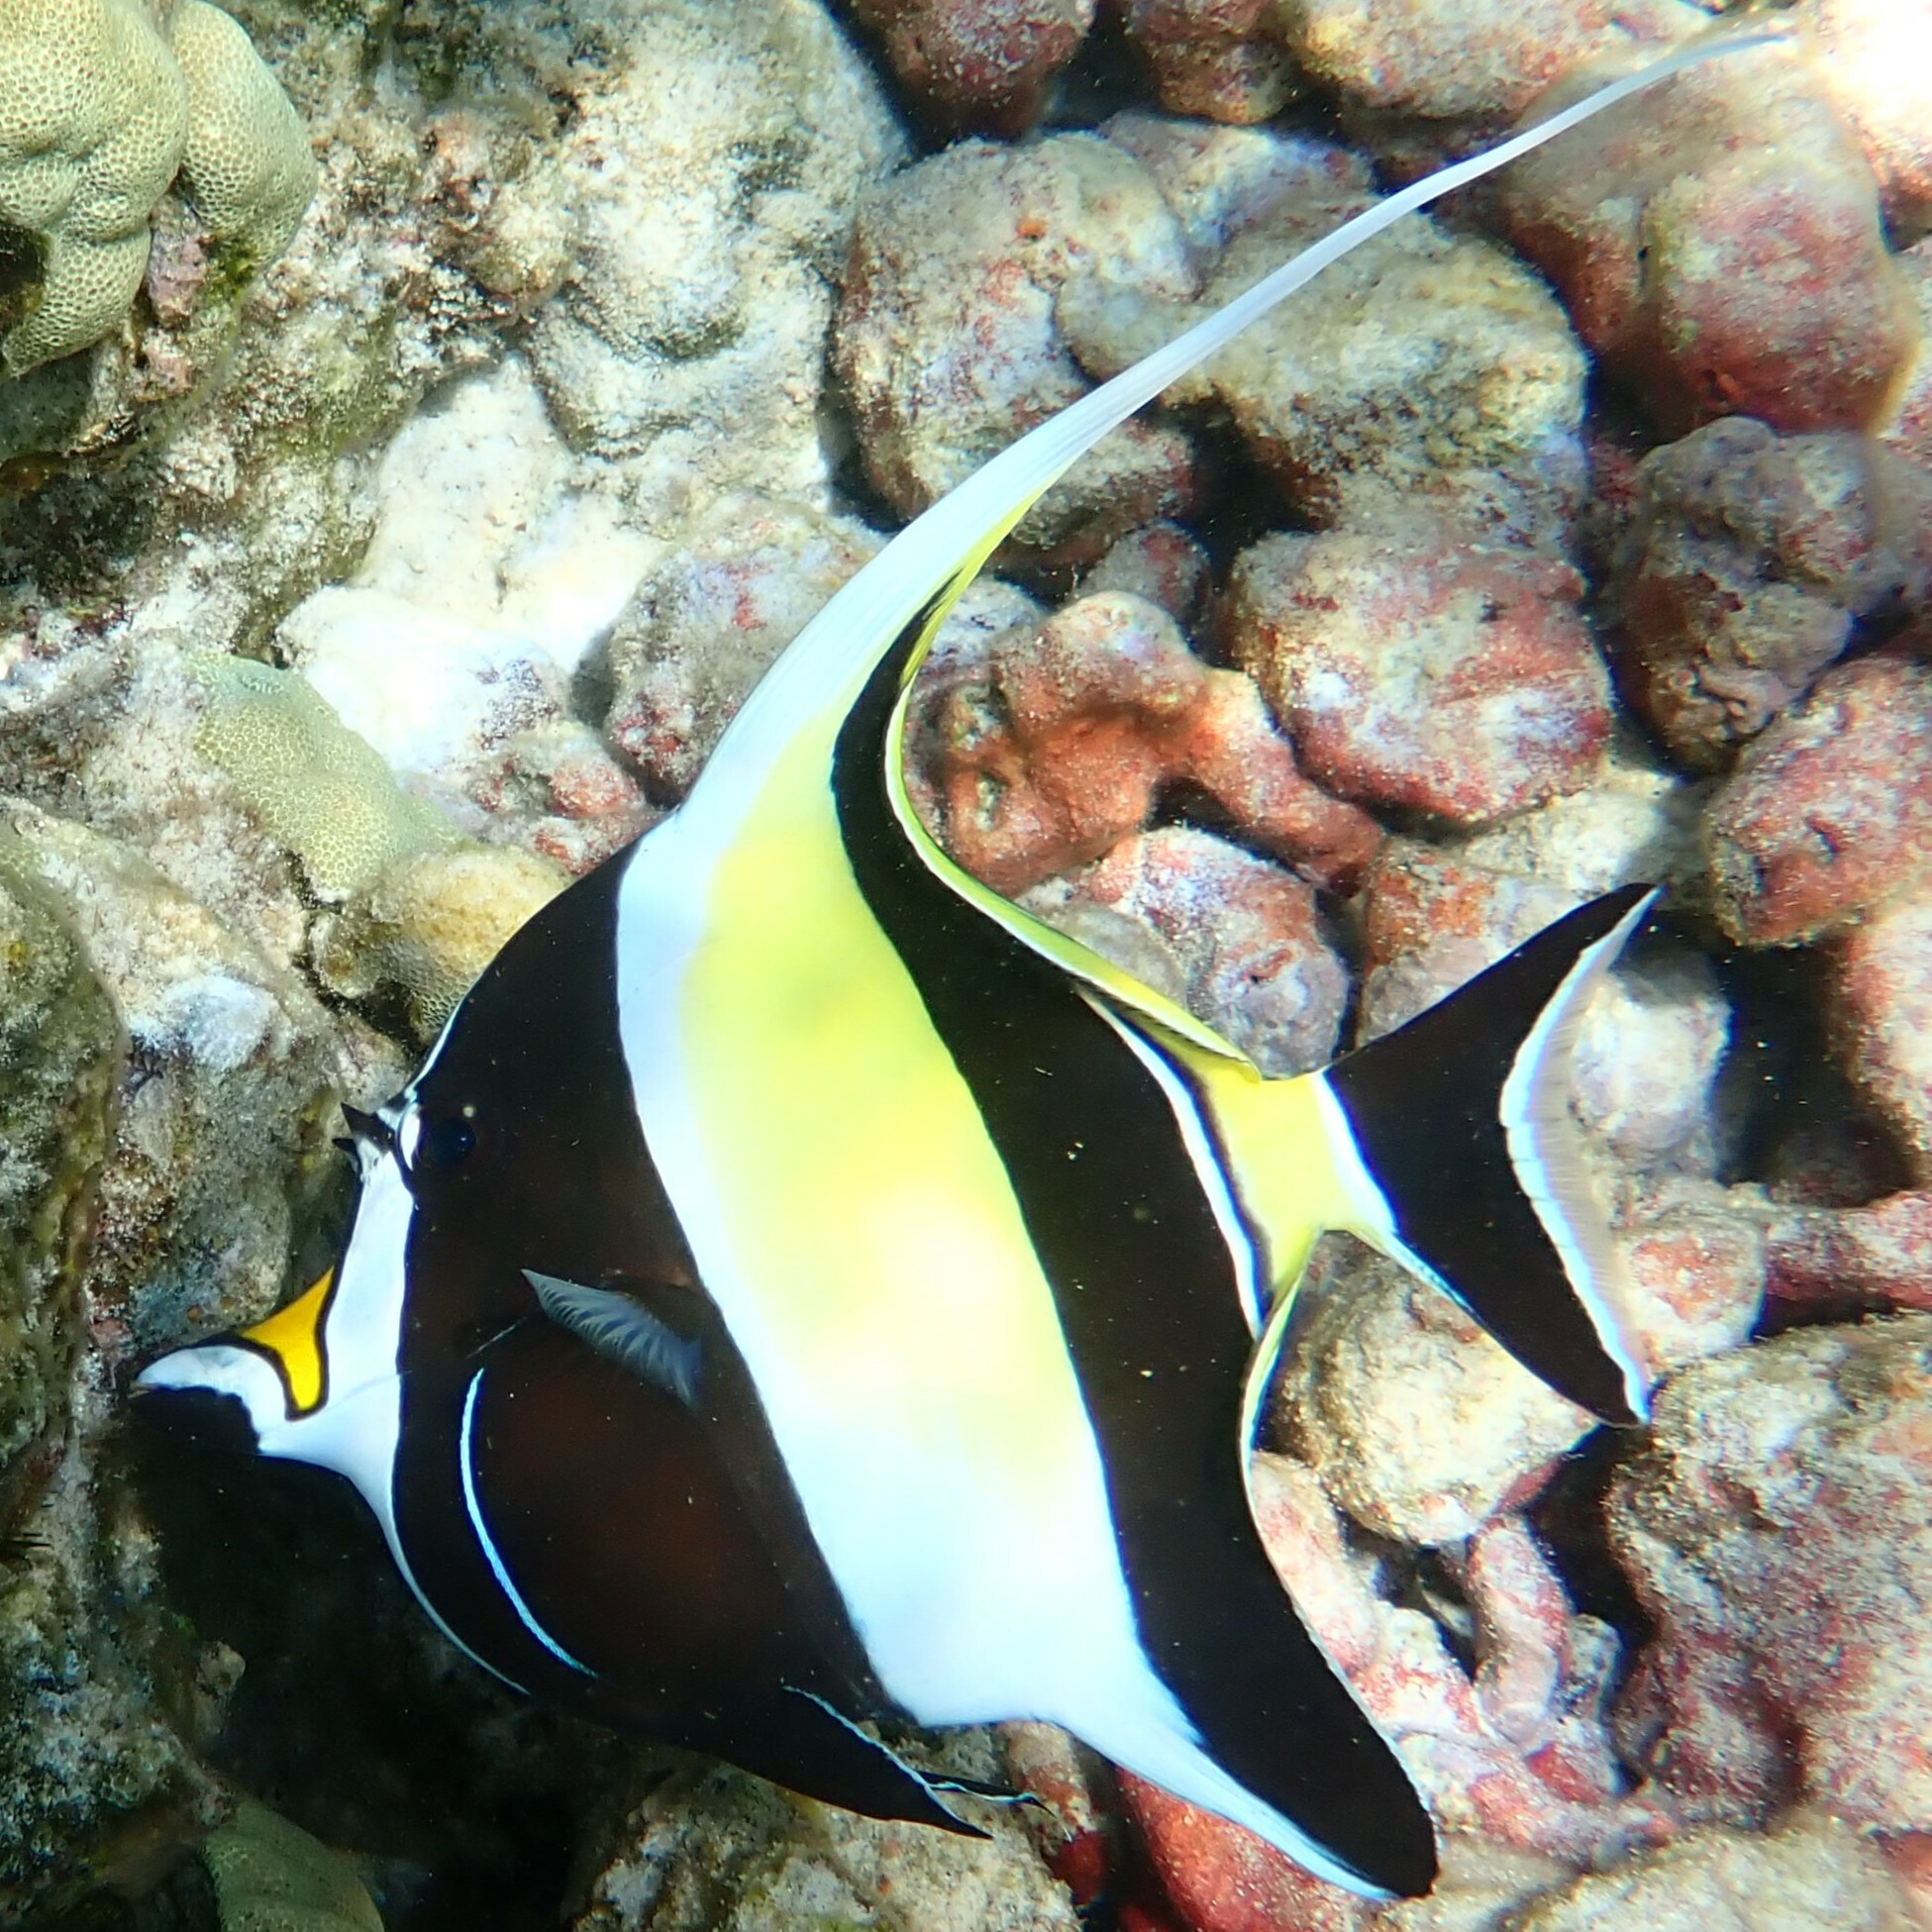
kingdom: Animalia
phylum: Chordata
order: Perciformes
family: Zanclidae
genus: Zanclus
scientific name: Zanclus cornutus
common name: Moorish idol
